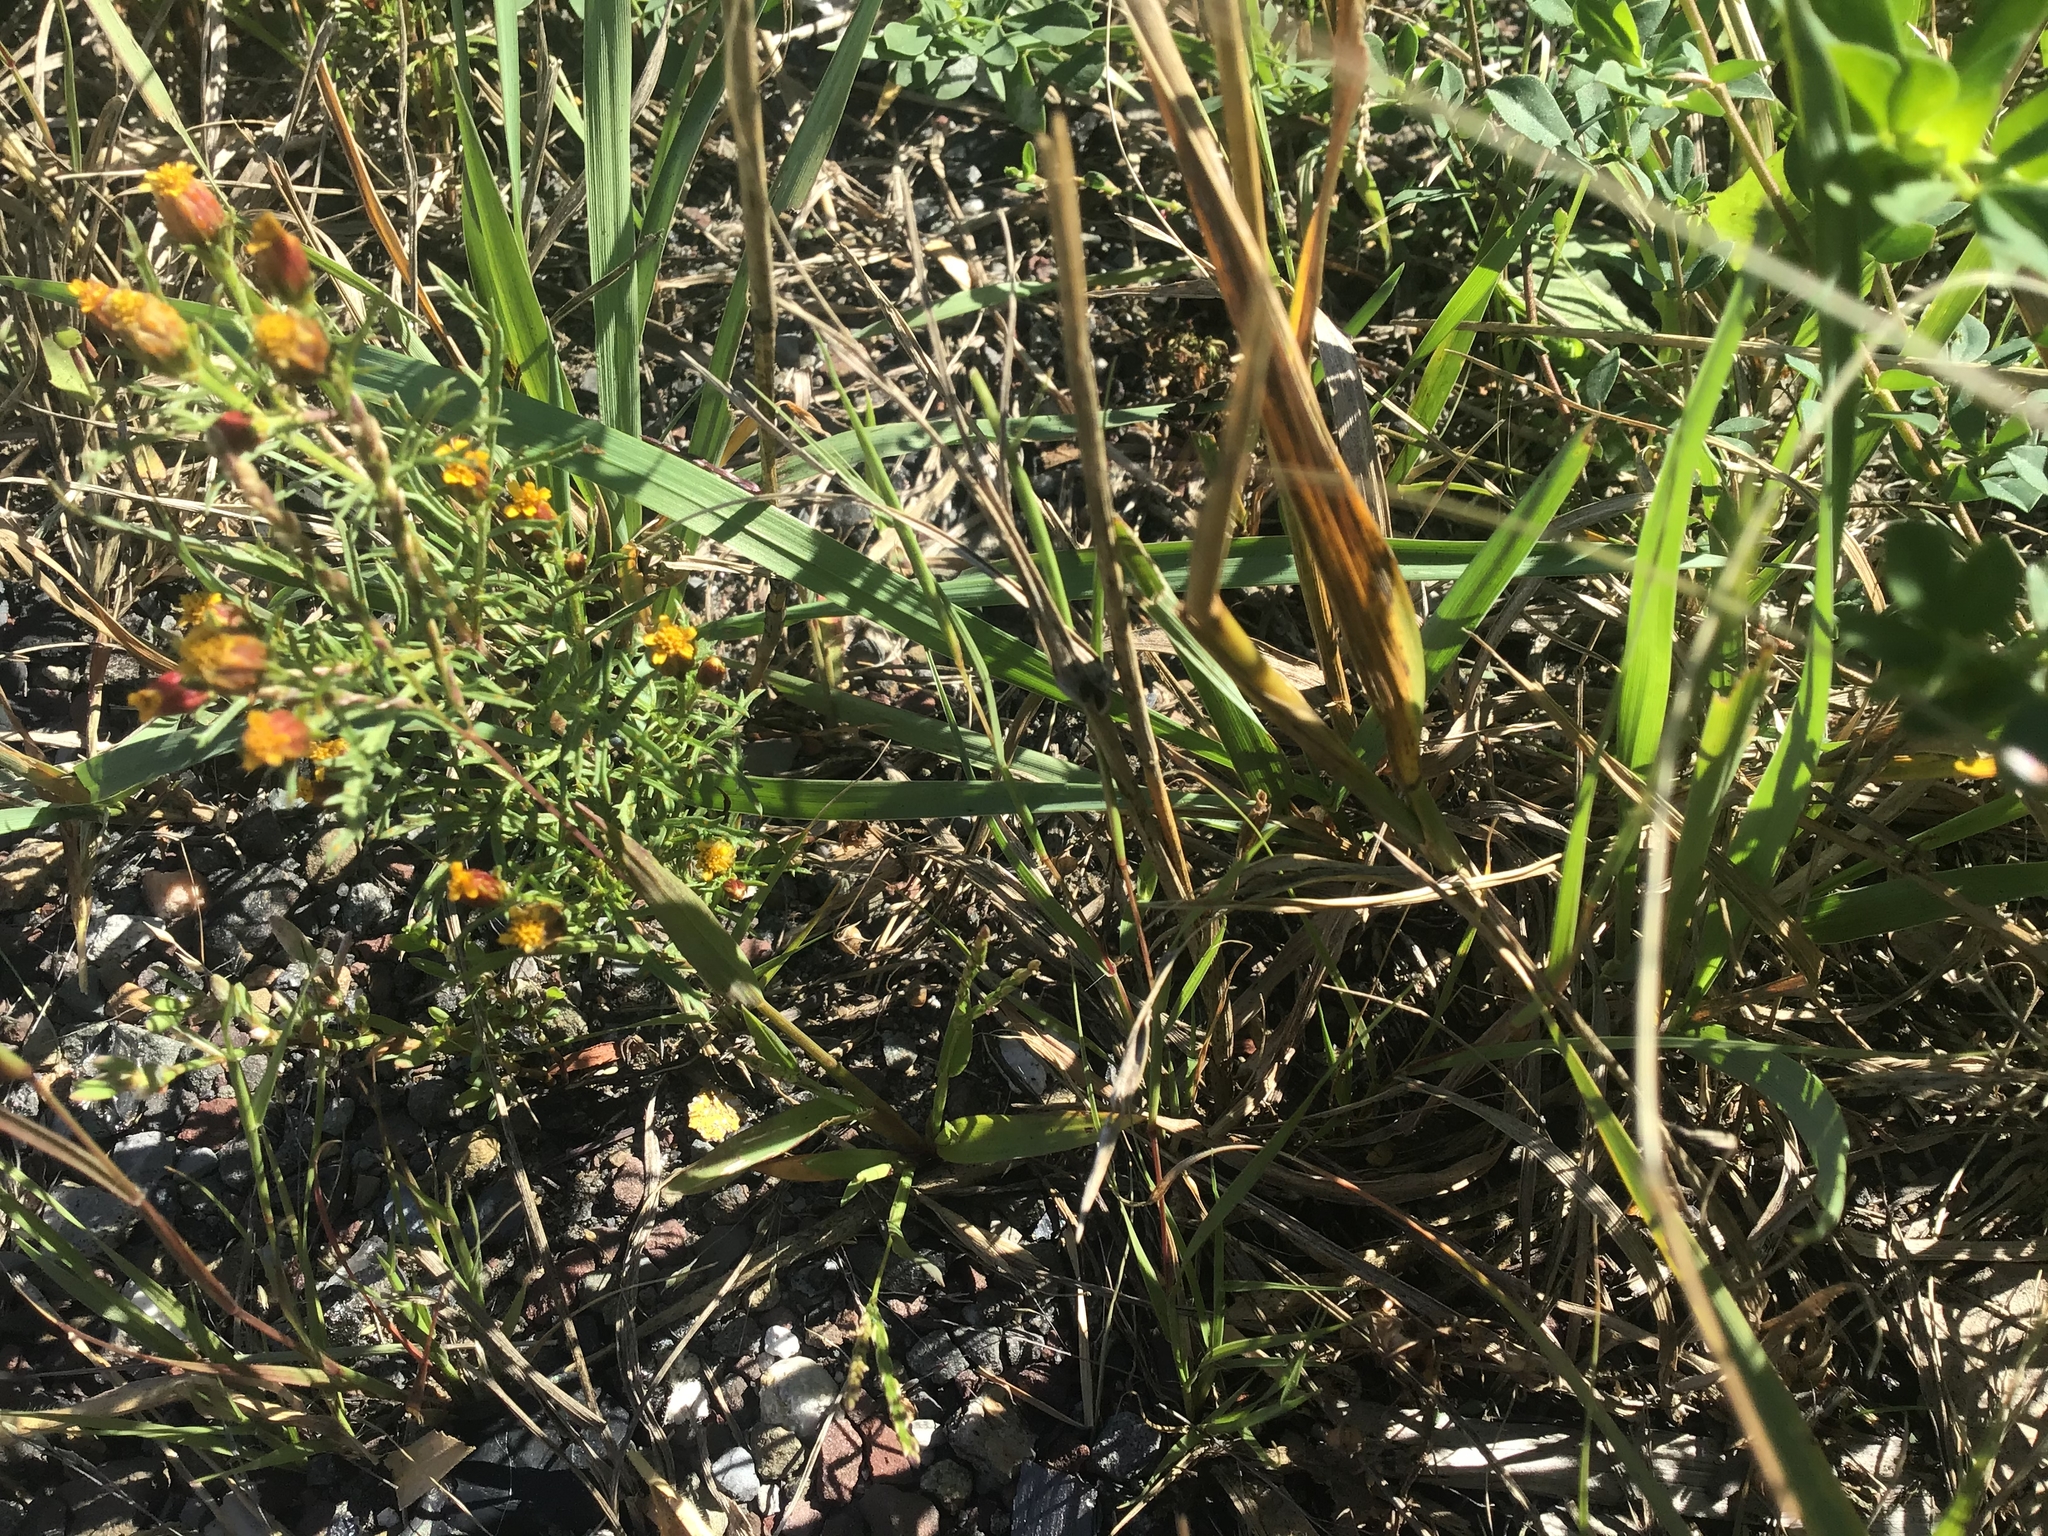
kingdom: Plantae
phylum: Tracheophyta
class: Magnoliopsida
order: Asterales
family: Asteraceae
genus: Dyssodia
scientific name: Dyssodia papposa
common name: Dogweed
